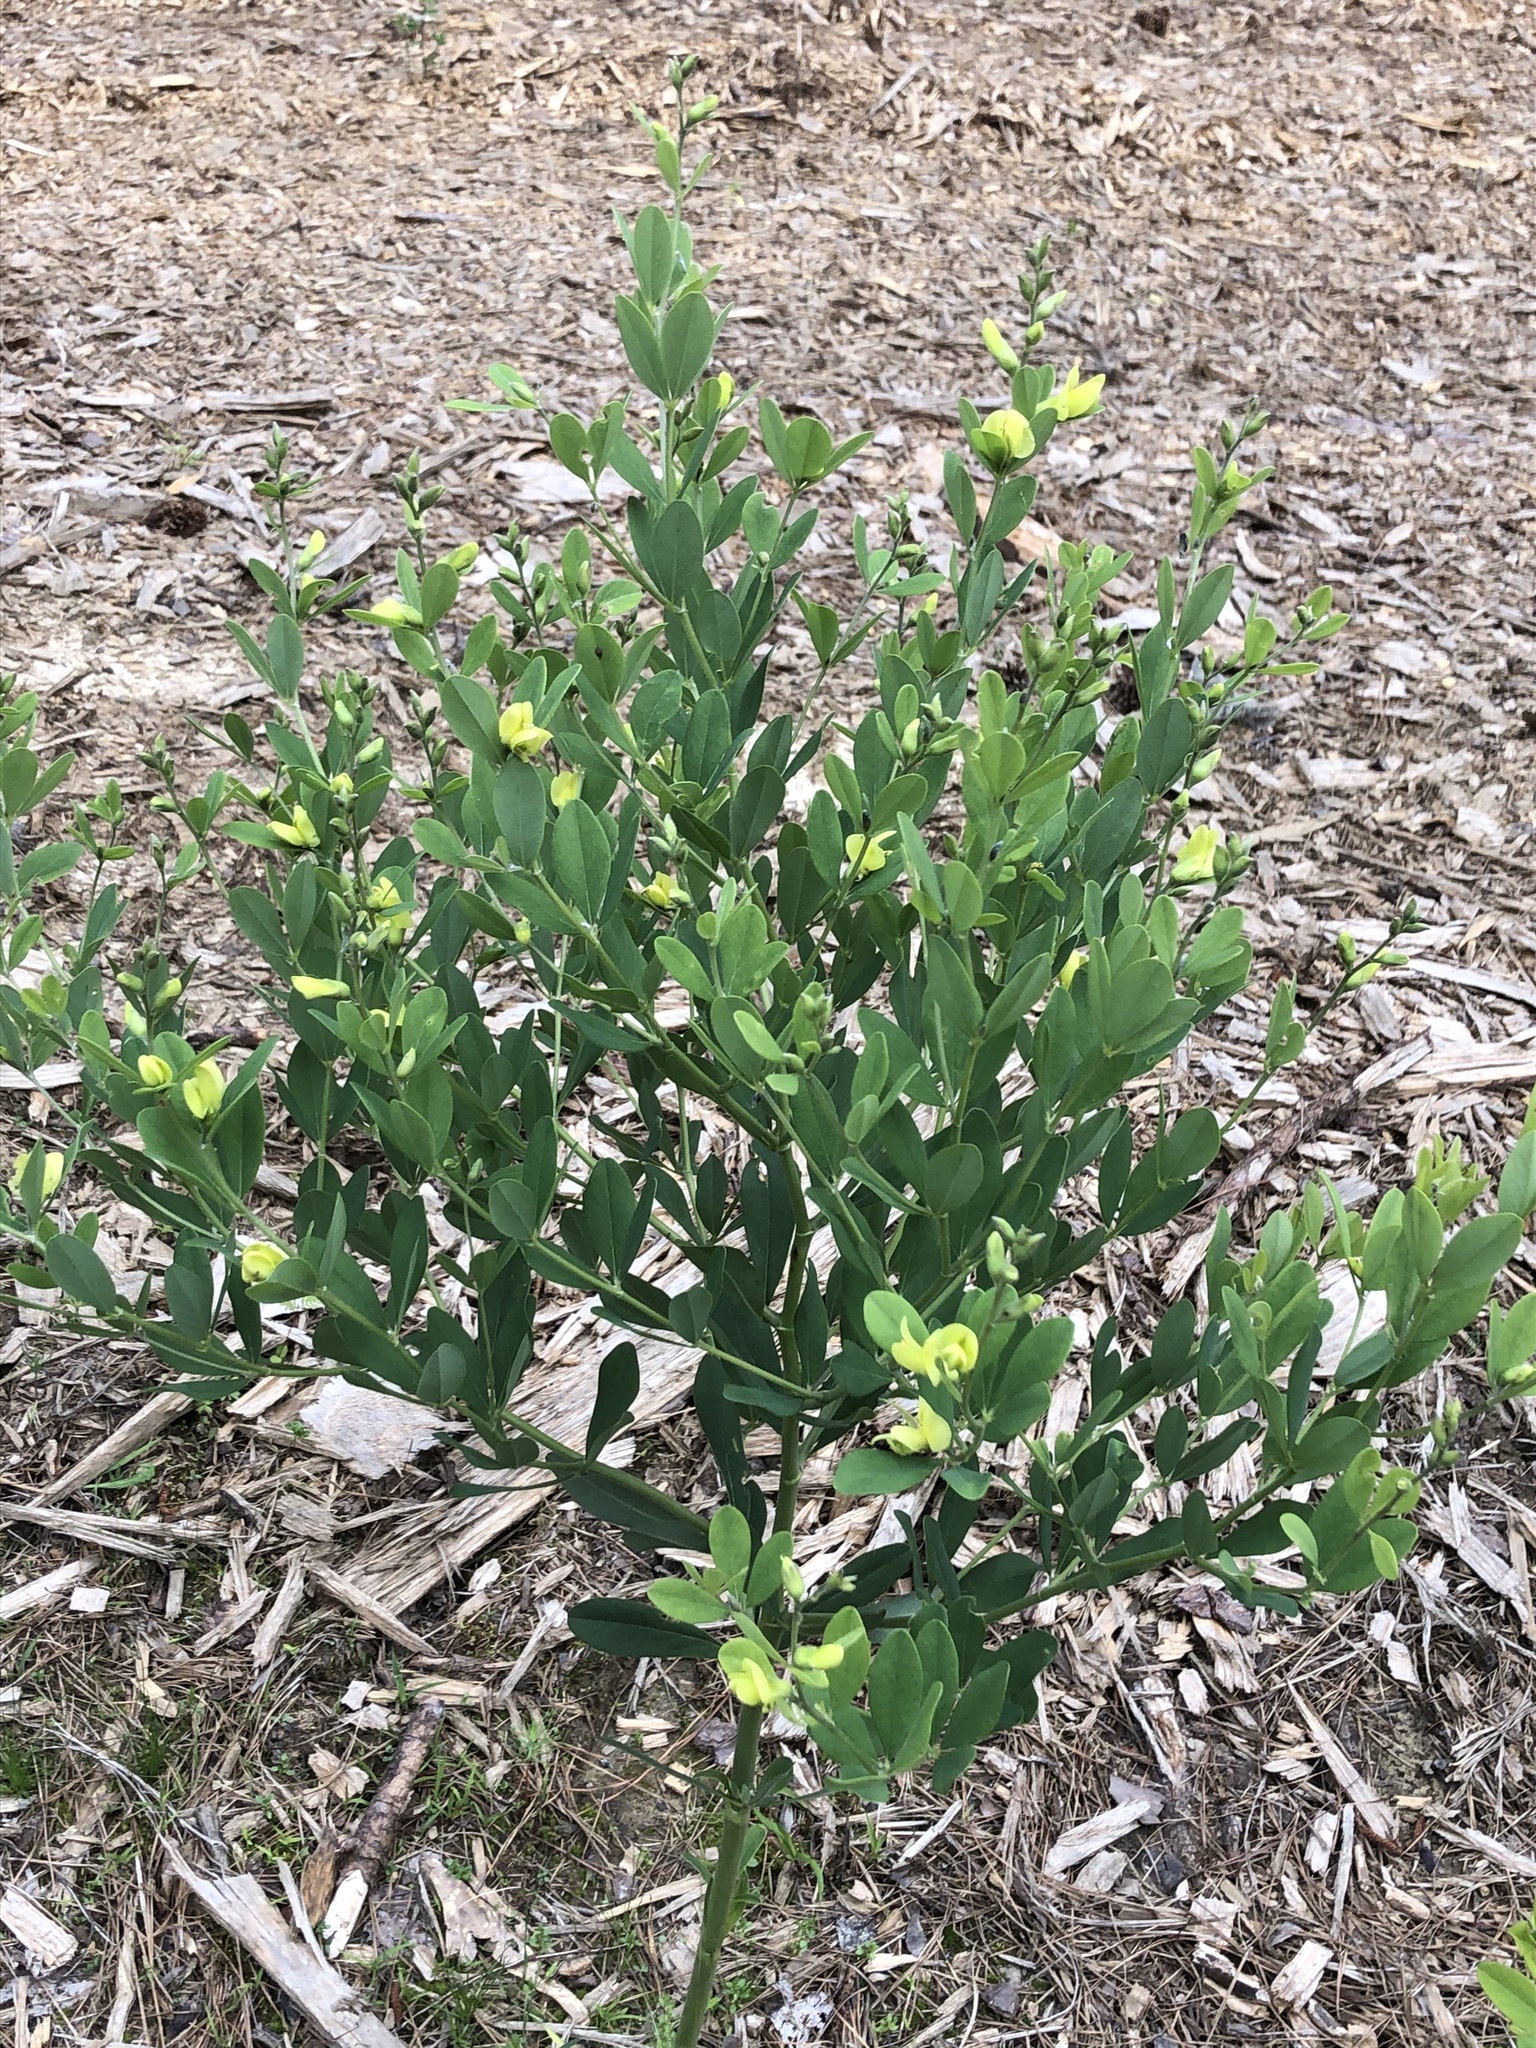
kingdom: Plantae
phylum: Tracheophyta
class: Magnoliopsida
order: Fabales
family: Fabaceae
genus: Baptisia
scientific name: Baptisia nuttalliana
